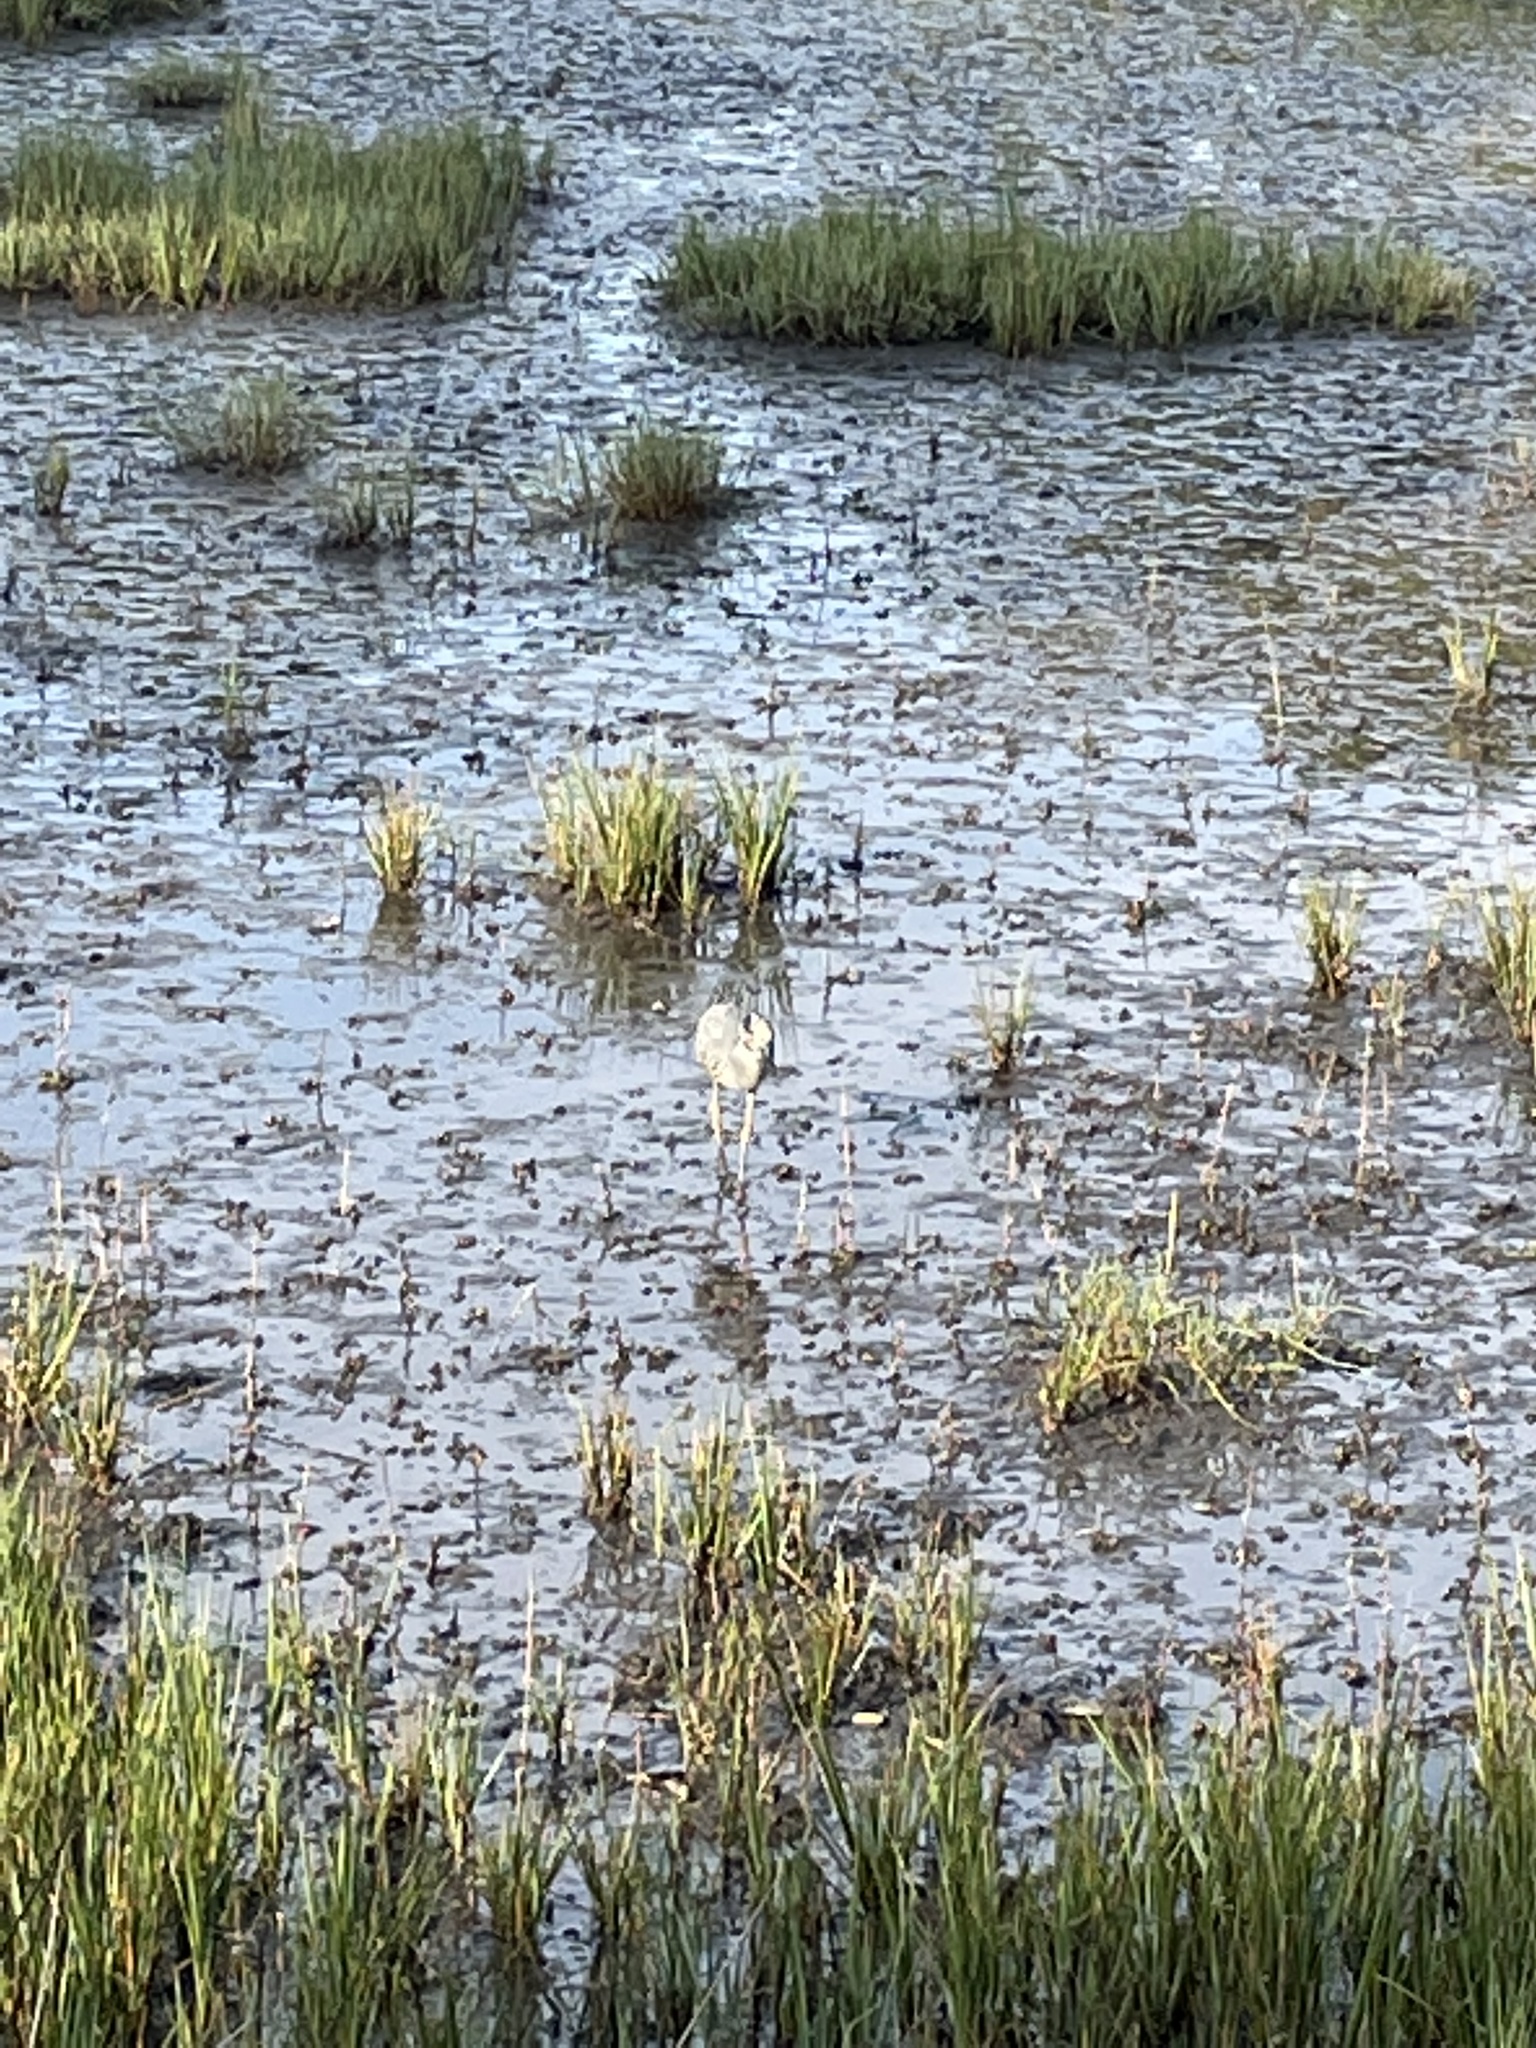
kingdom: Animalia
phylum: Chordata
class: Aves
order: Pelecaniformes
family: Ardeidae
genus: Nyctanassa
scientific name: Nyctanassa violacea
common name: Yellow-crowned night heron
